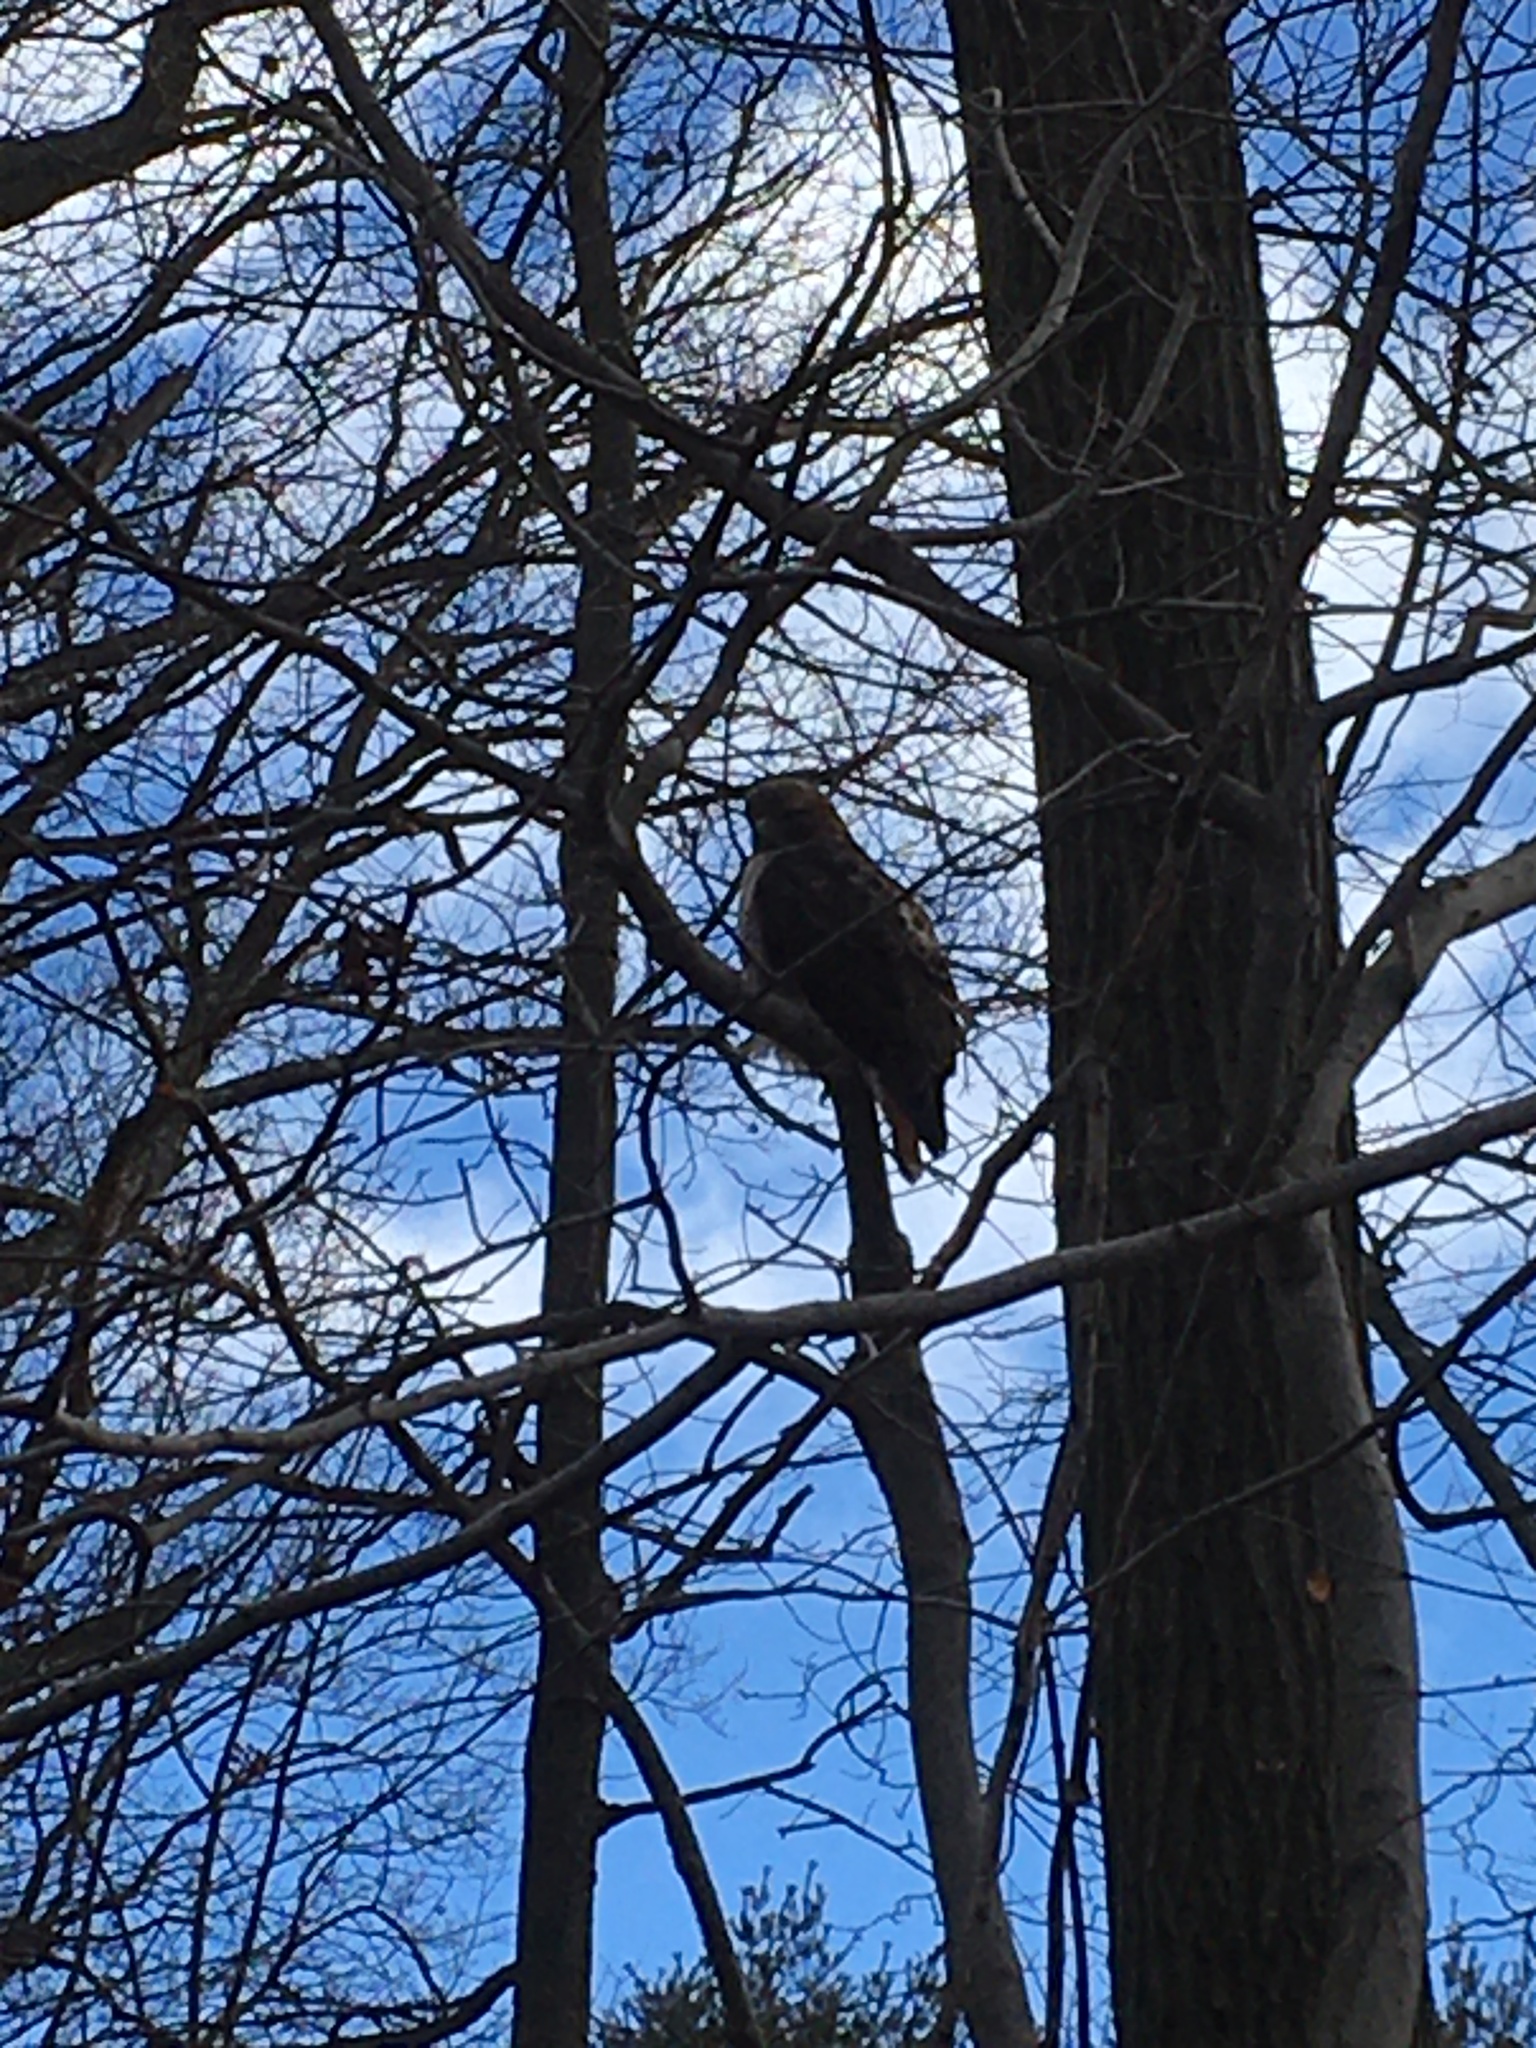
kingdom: Animalia
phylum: Chordata
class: Aves
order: Accipitriformes
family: Accipitridae
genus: Buteo
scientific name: Buteo jamaicensis
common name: Red-tailed hawk
